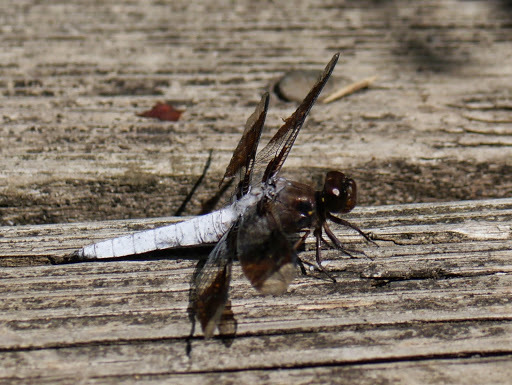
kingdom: Animalia
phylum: Arthropoda
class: Insecta
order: Odonata
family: Libellulidae
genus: Plathemis
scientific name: Plathemis lydia
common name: Common whitetail
